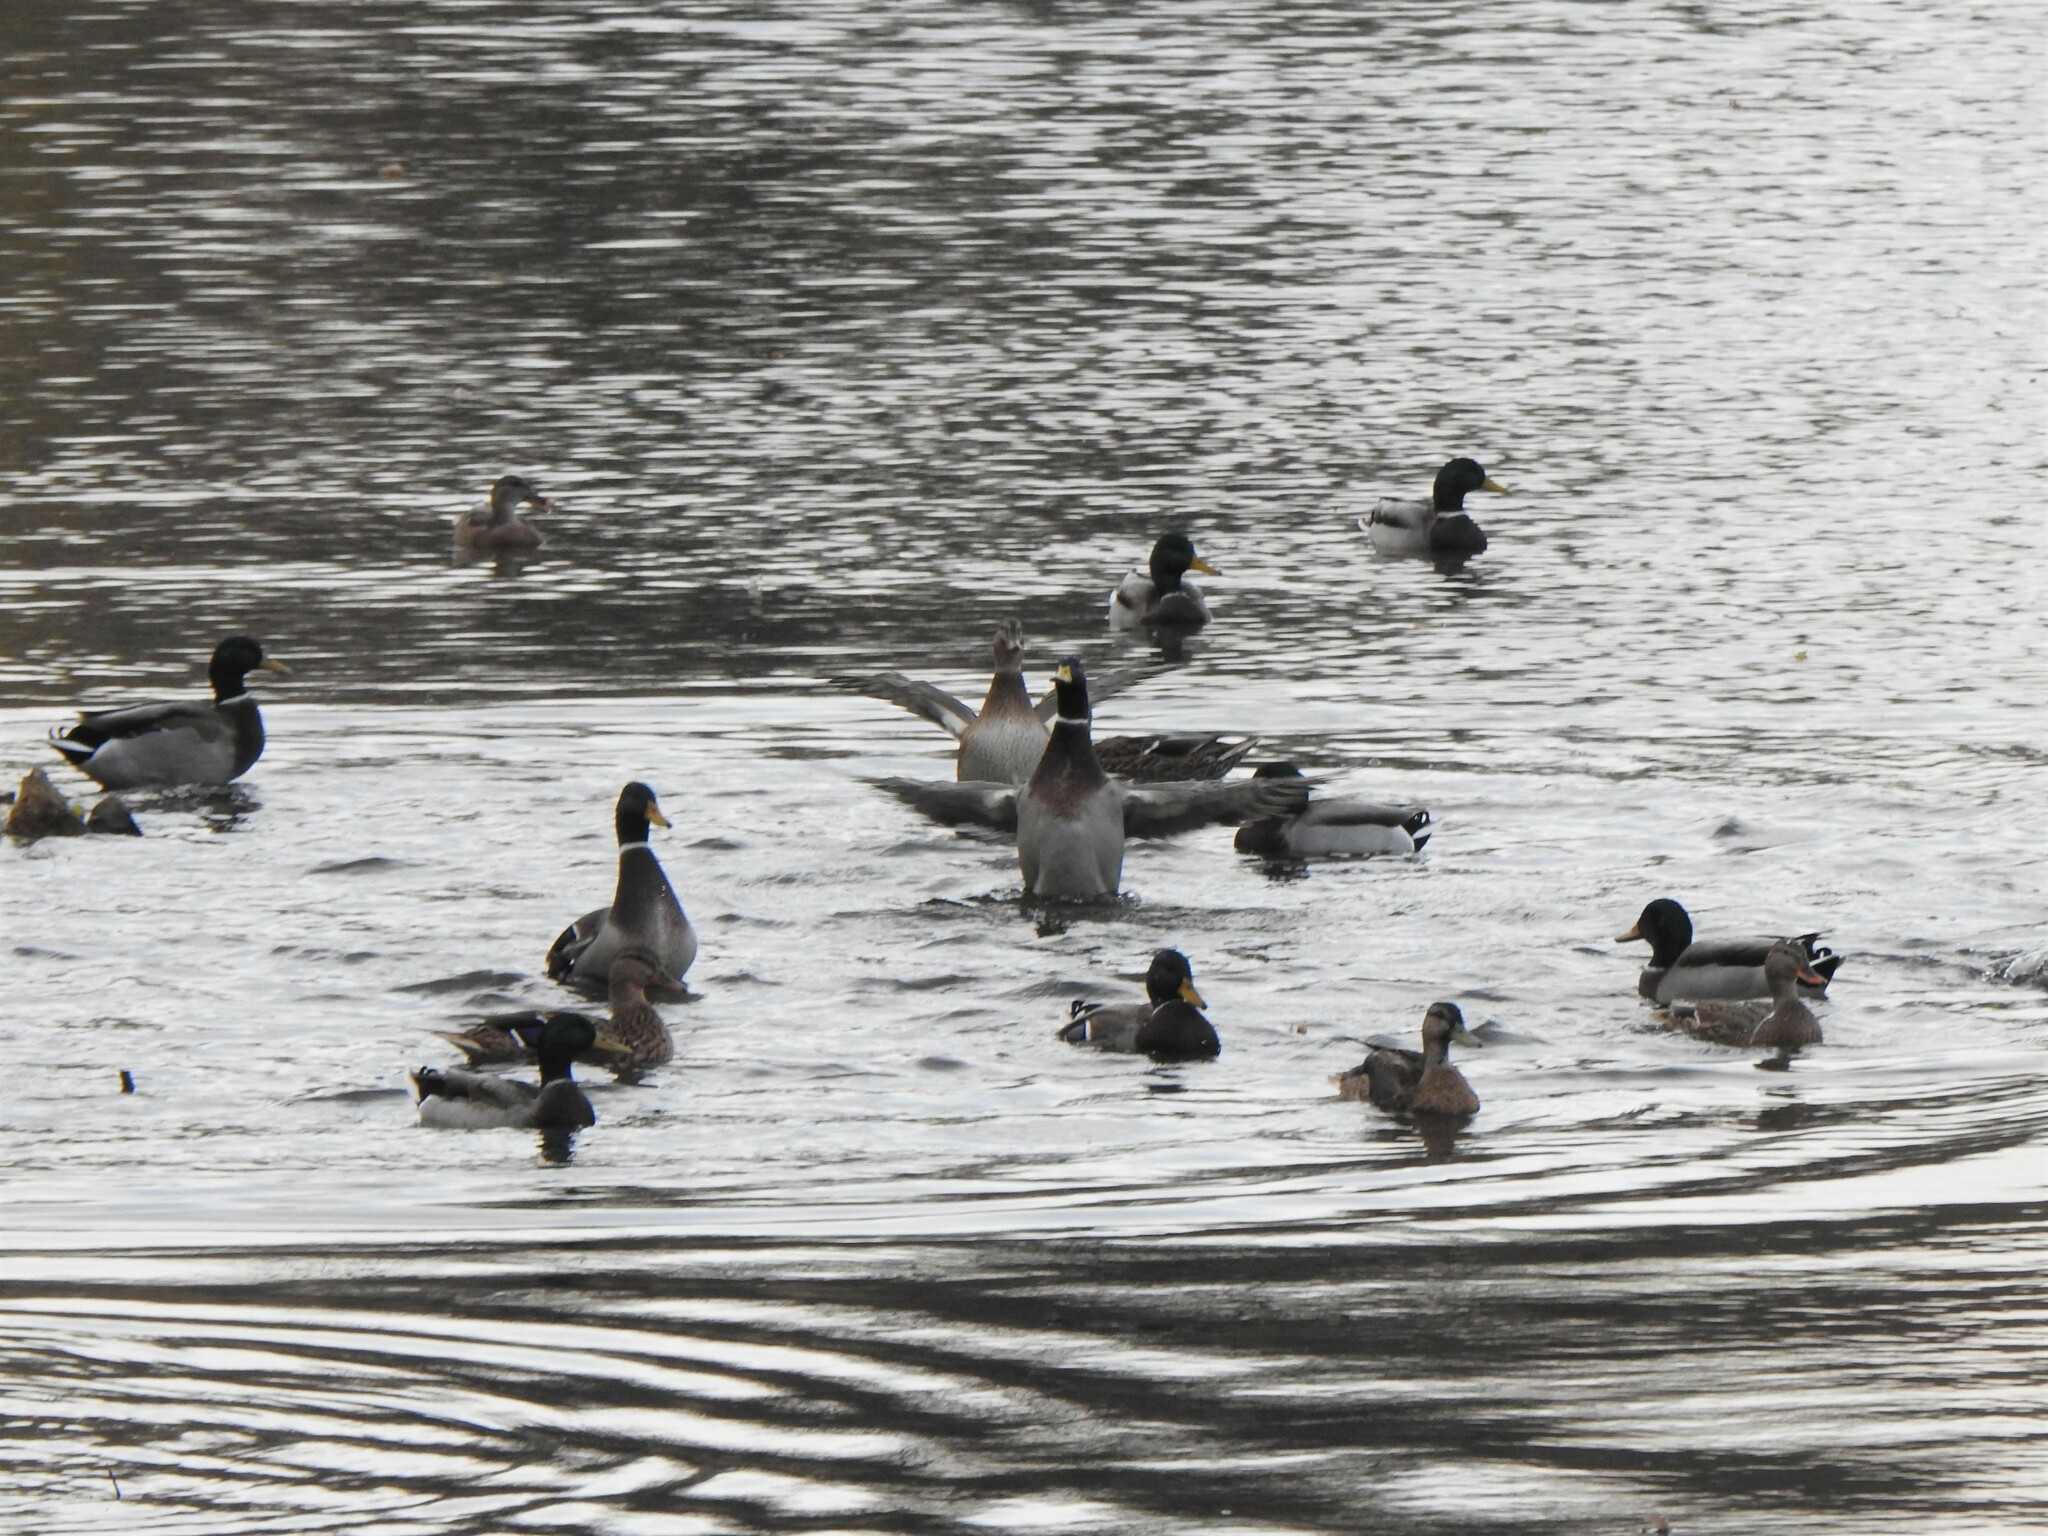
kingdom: Animalia
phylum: Chordata
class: Aves
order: Anseriformes
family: Anatidae
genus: Anas
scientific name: Anas platyrhynchos
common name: Mallard
